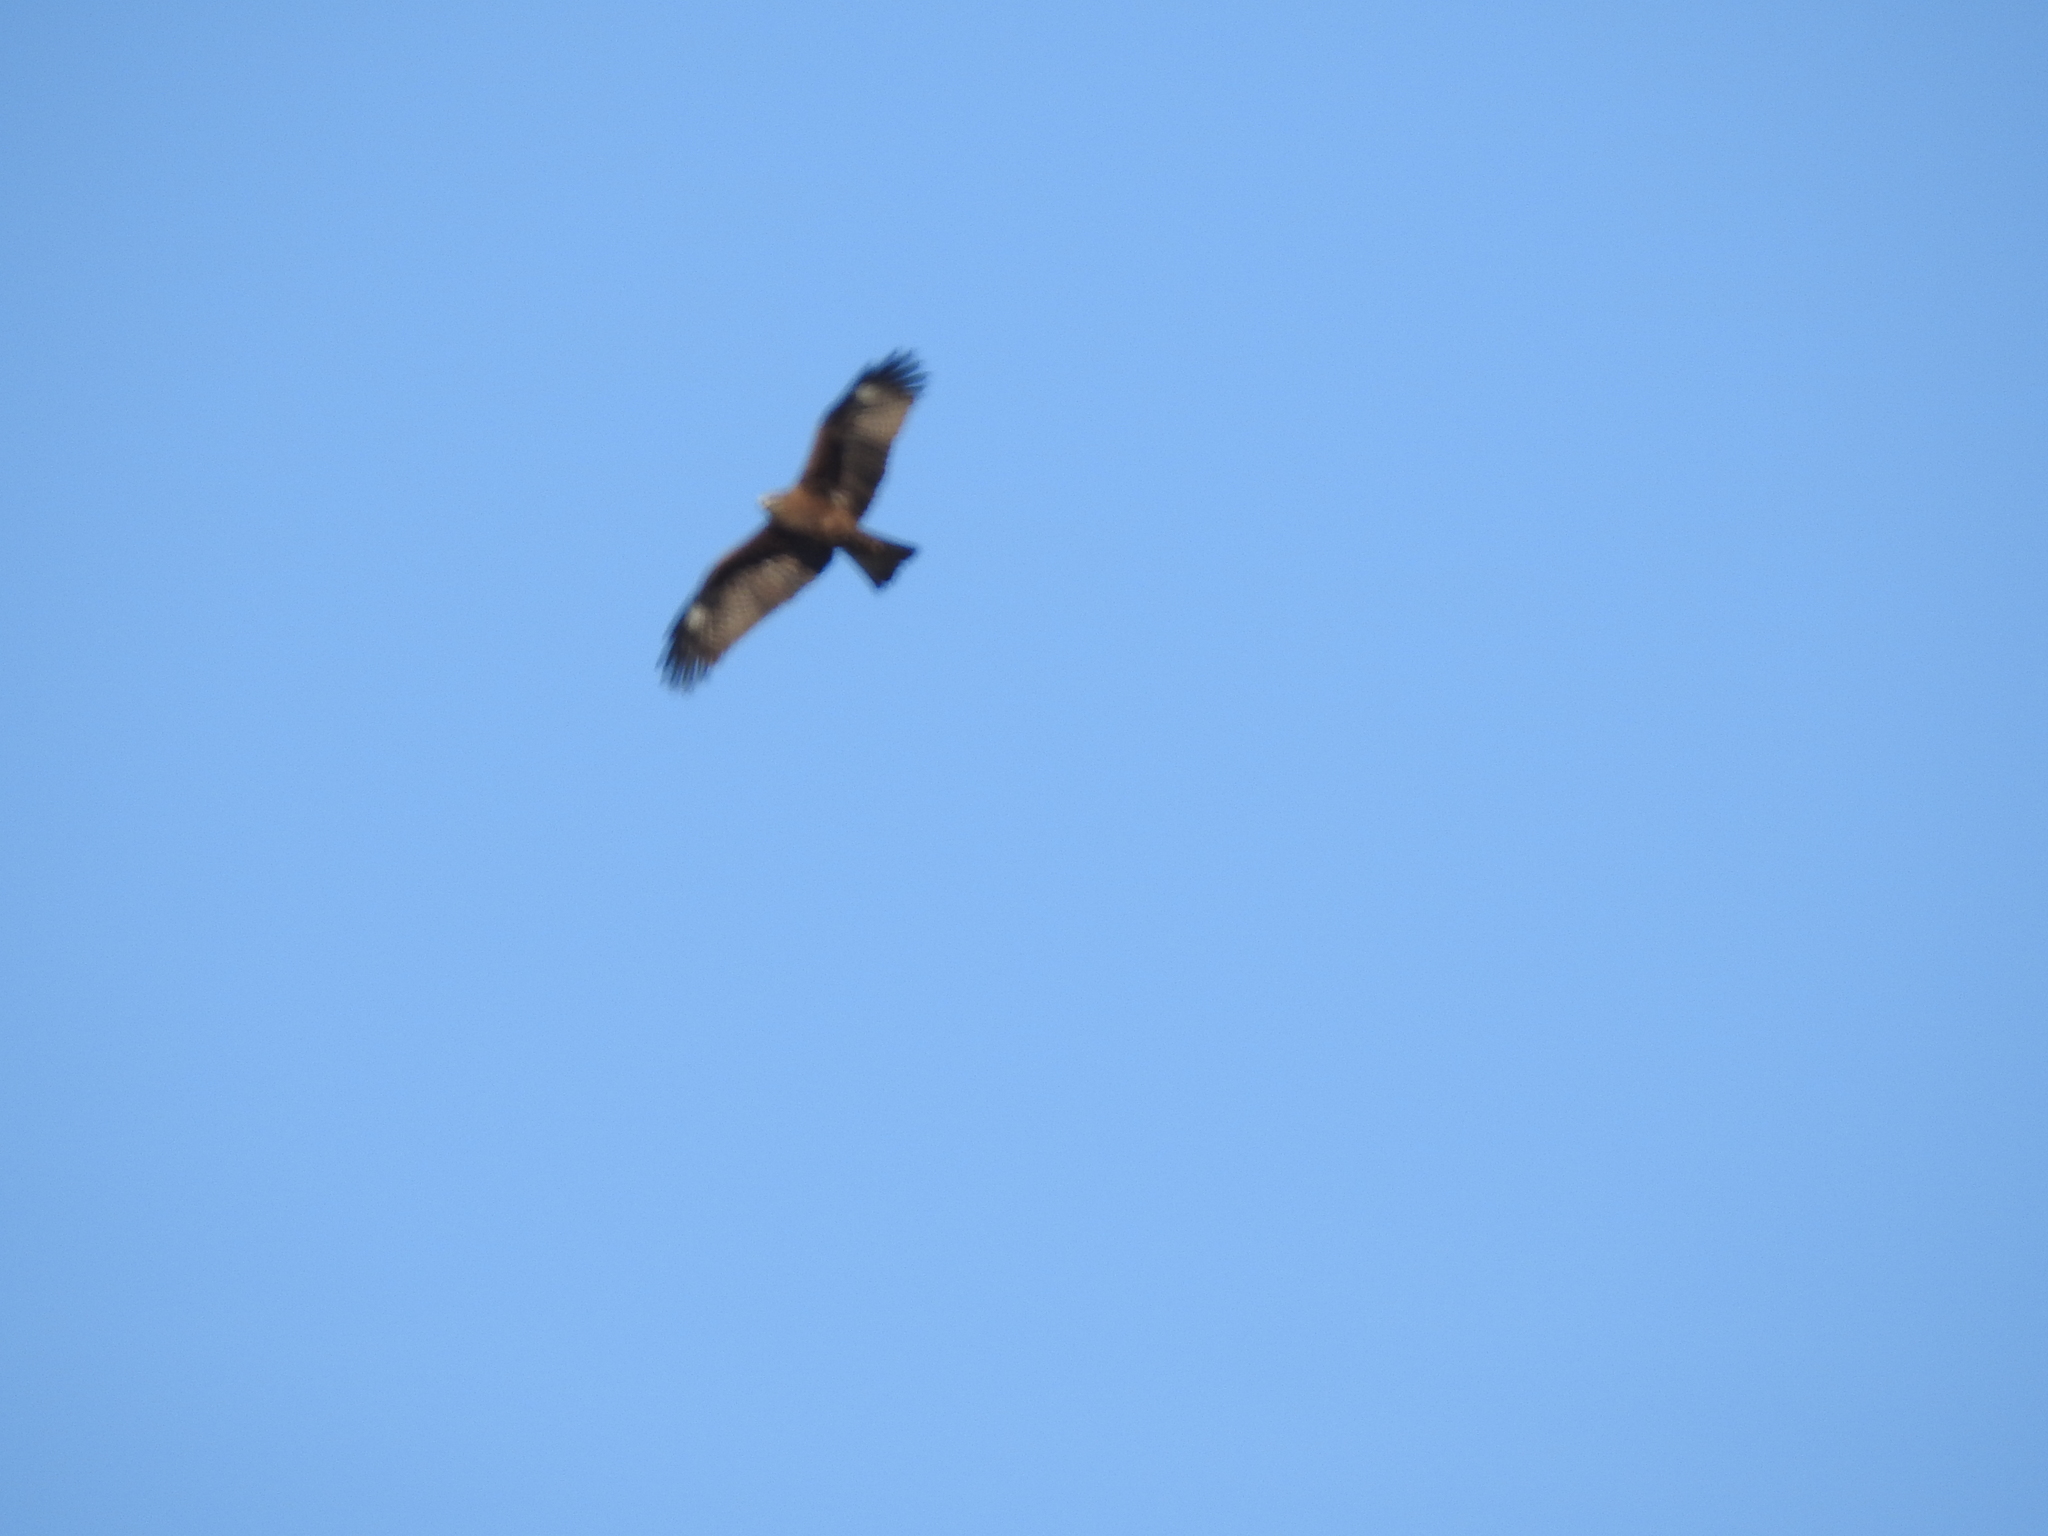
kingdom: Animalia
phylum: Chordata
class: Aves
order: Accipitriformes
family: Accipitridae
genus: Milvus
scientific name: Milvus migrans
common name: Black kite
